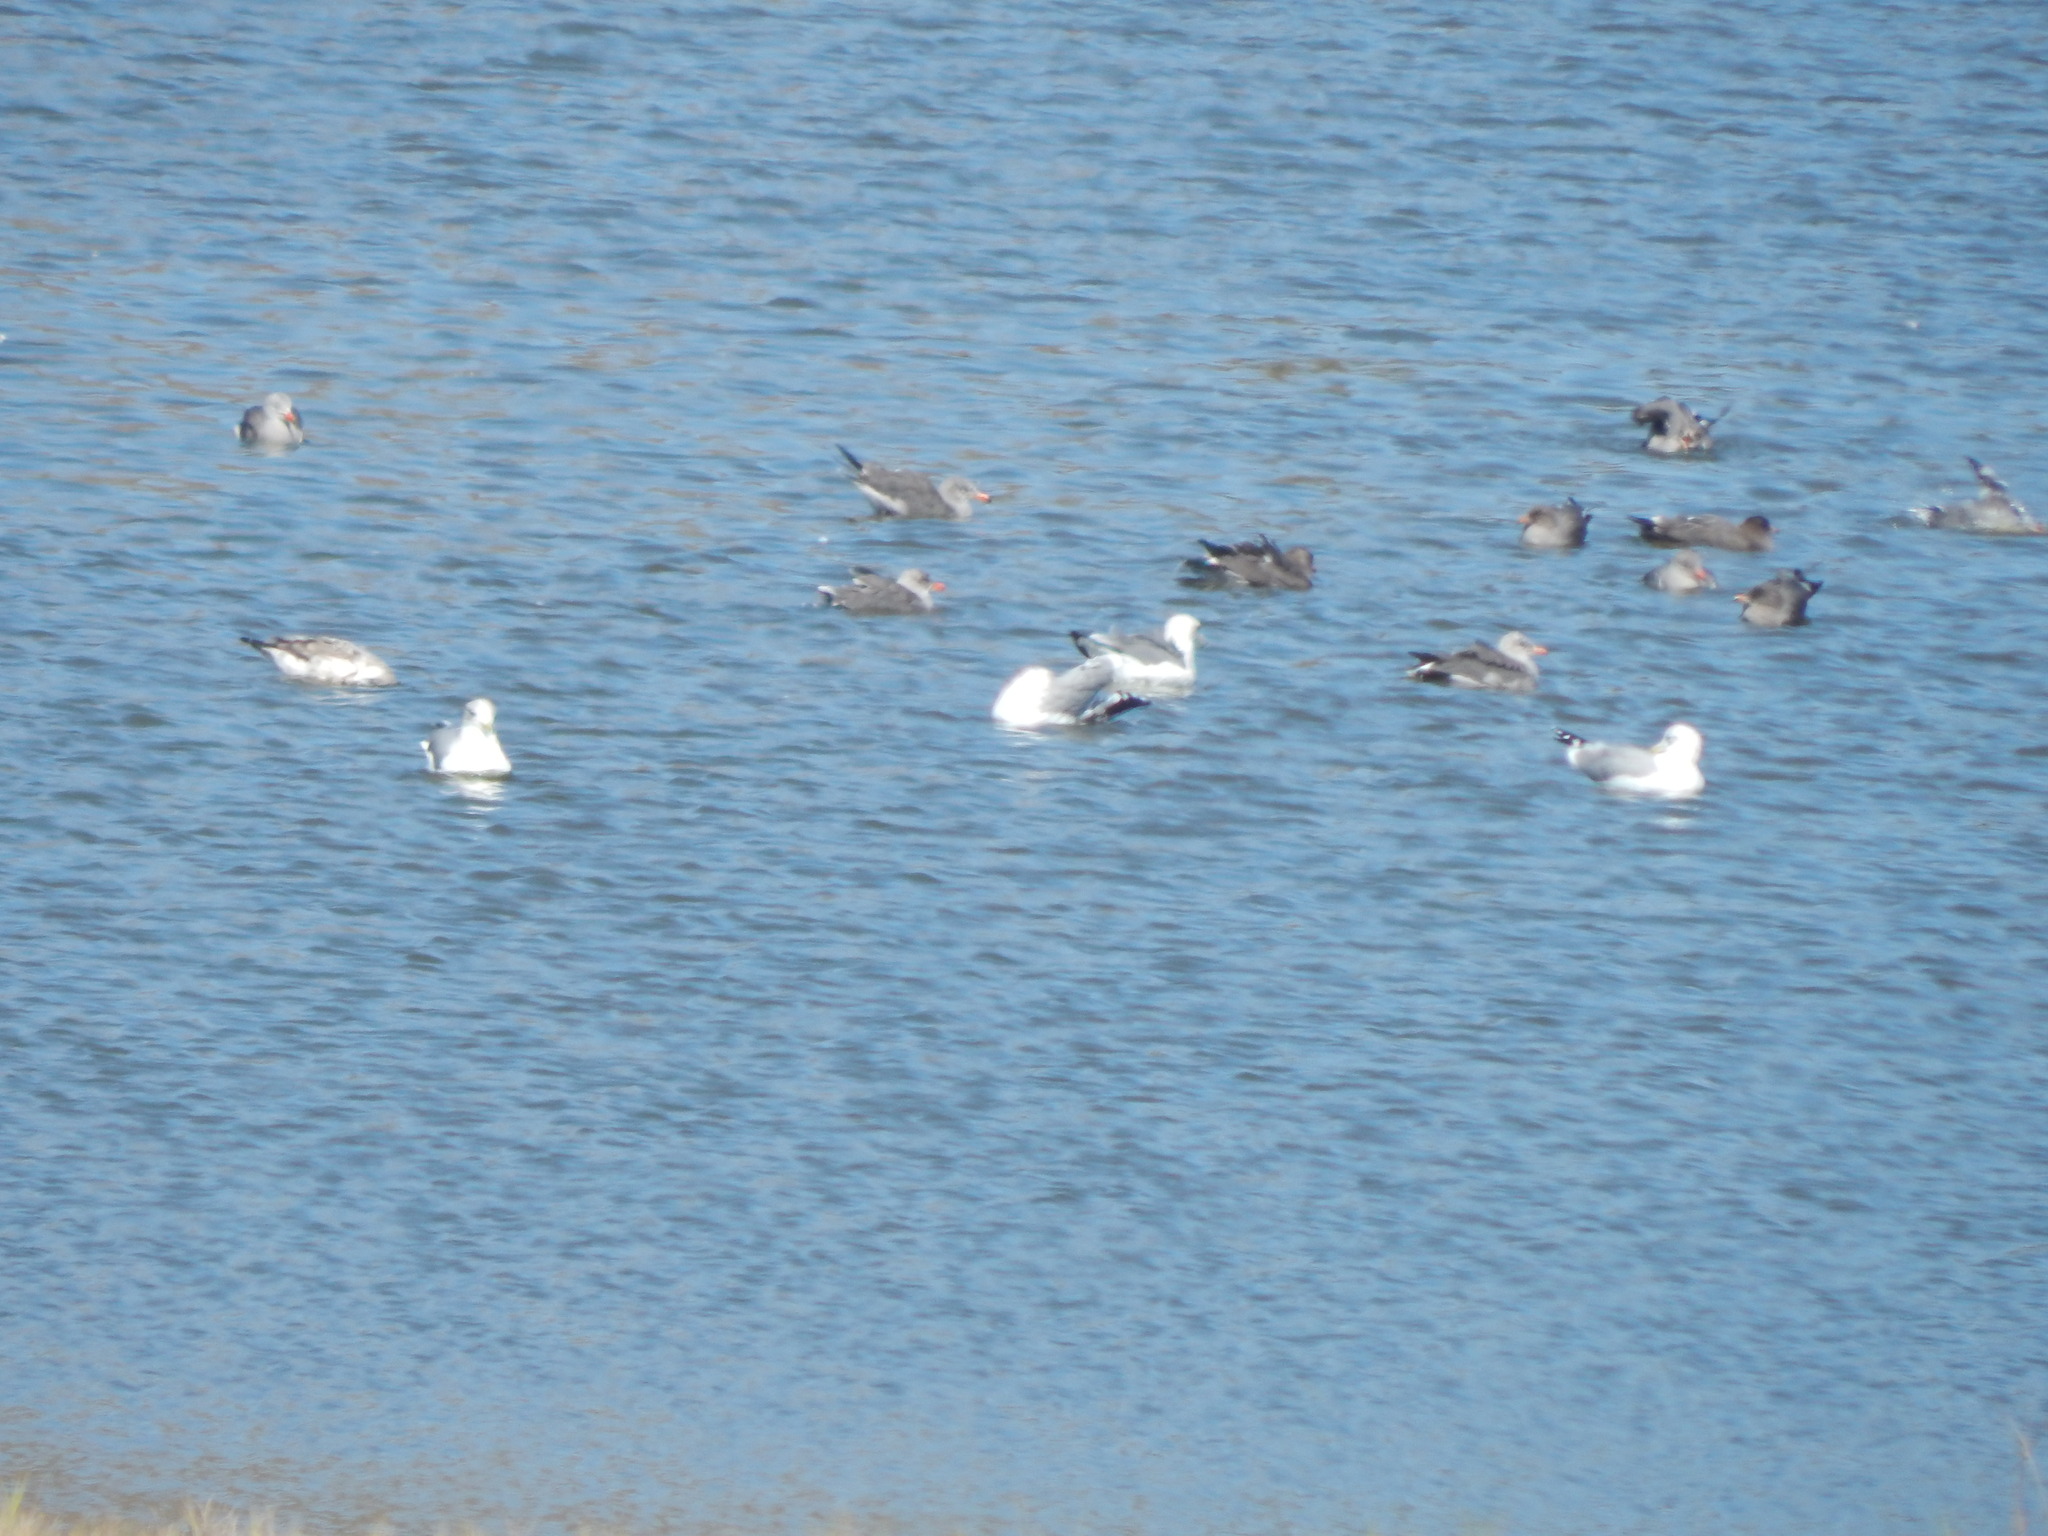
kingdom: Animalia
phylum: Chordata
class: Aves
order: Charadriiformes
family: Laridae
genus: Larus
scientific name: Larus californicus
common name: California gull
